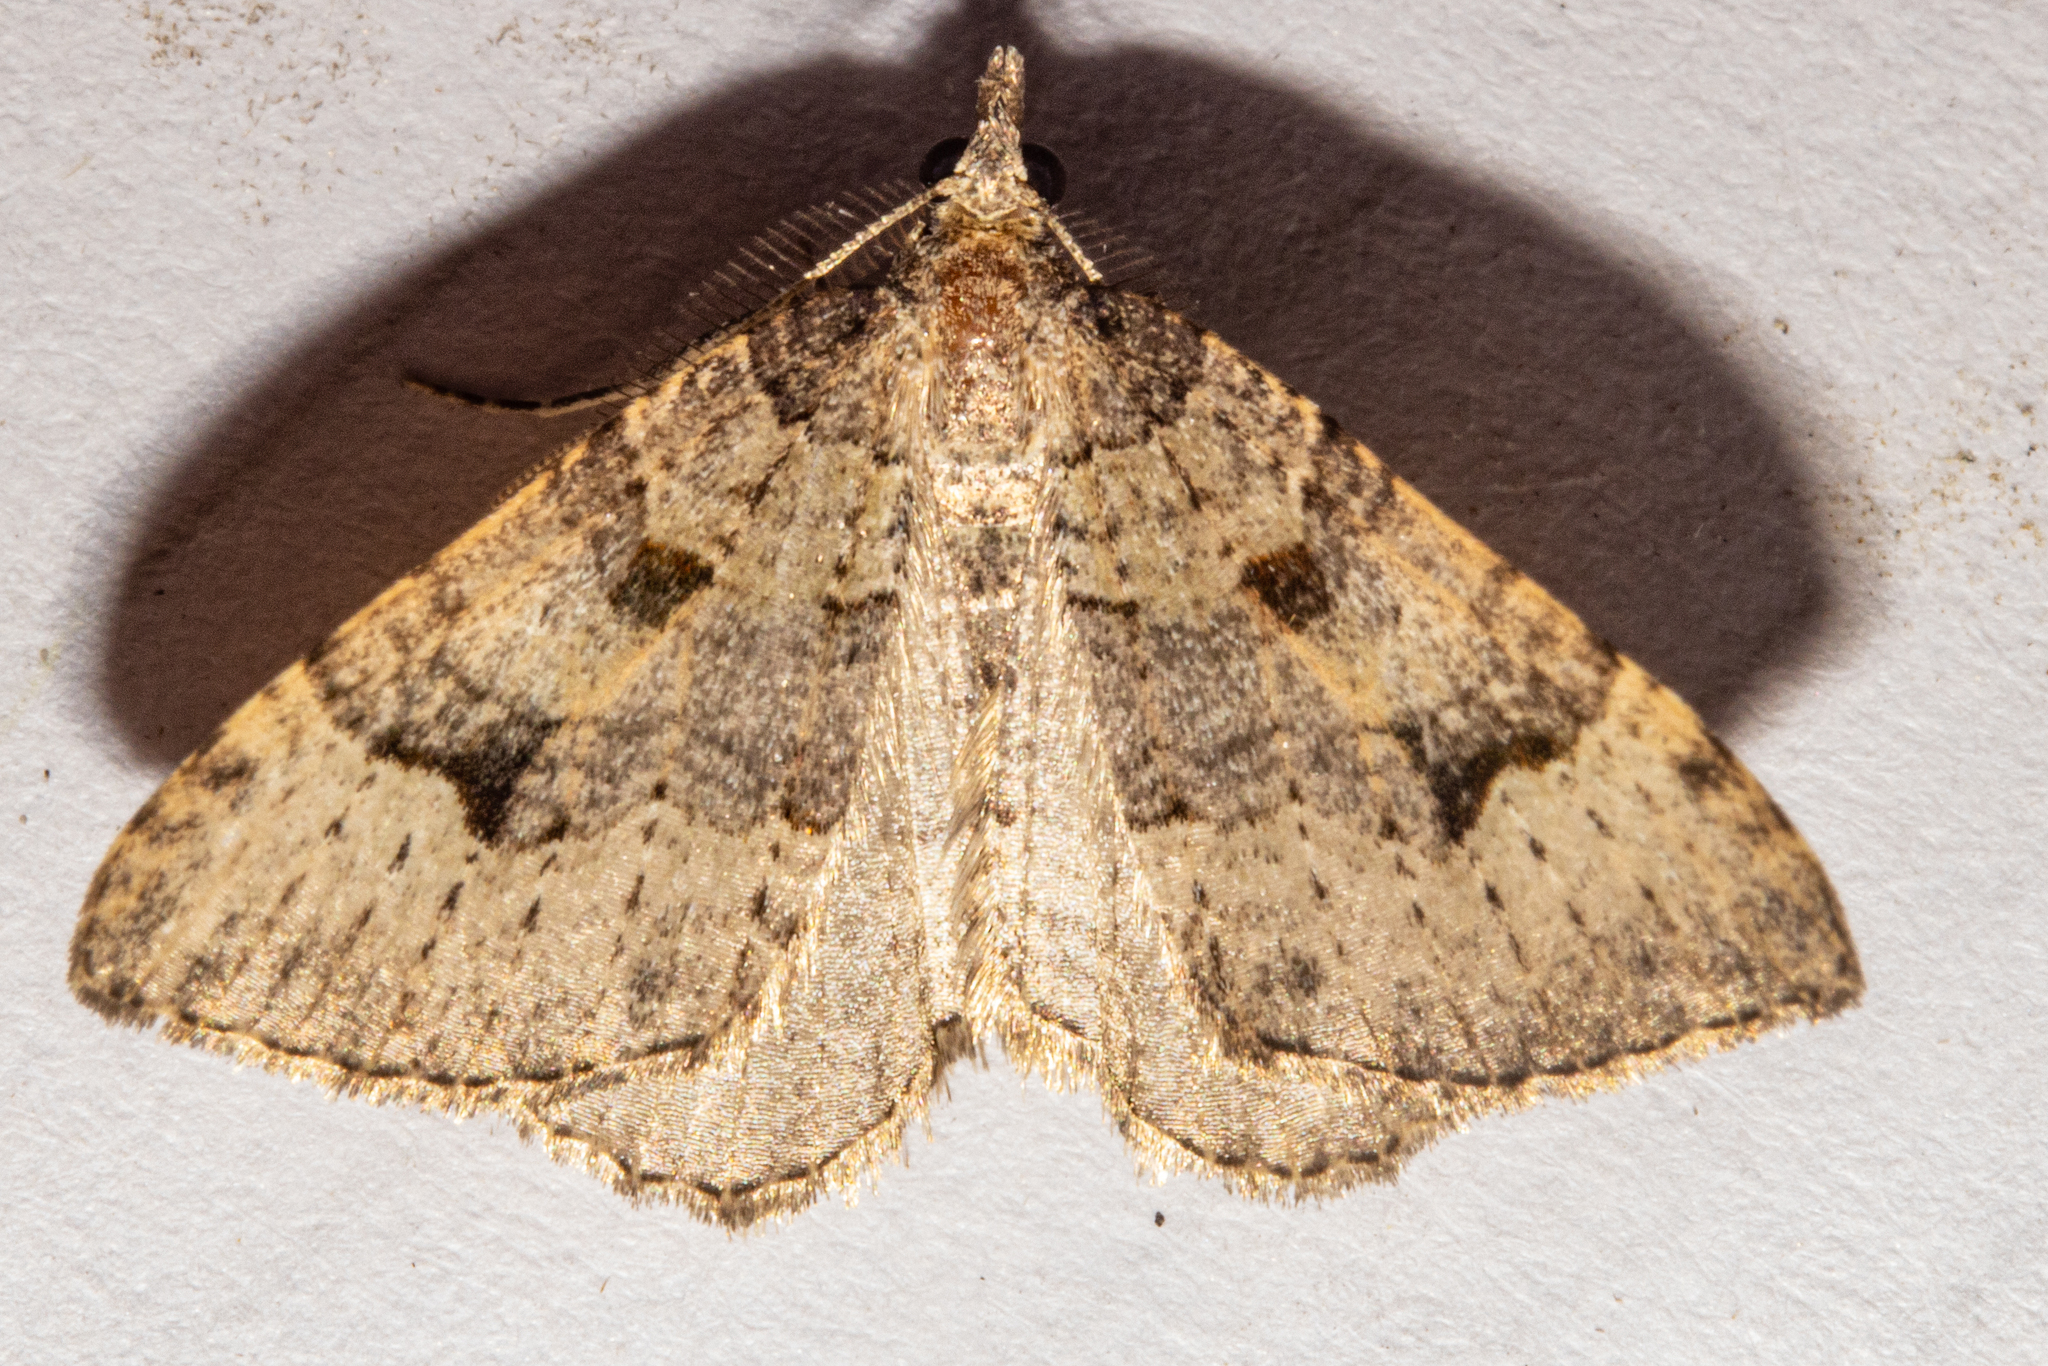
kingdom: Animalia
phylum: Arthropoda
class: Insecta
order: Lepidoptera
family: Geometridae
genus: Epyaxa
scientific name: Epyaxa rosearia
